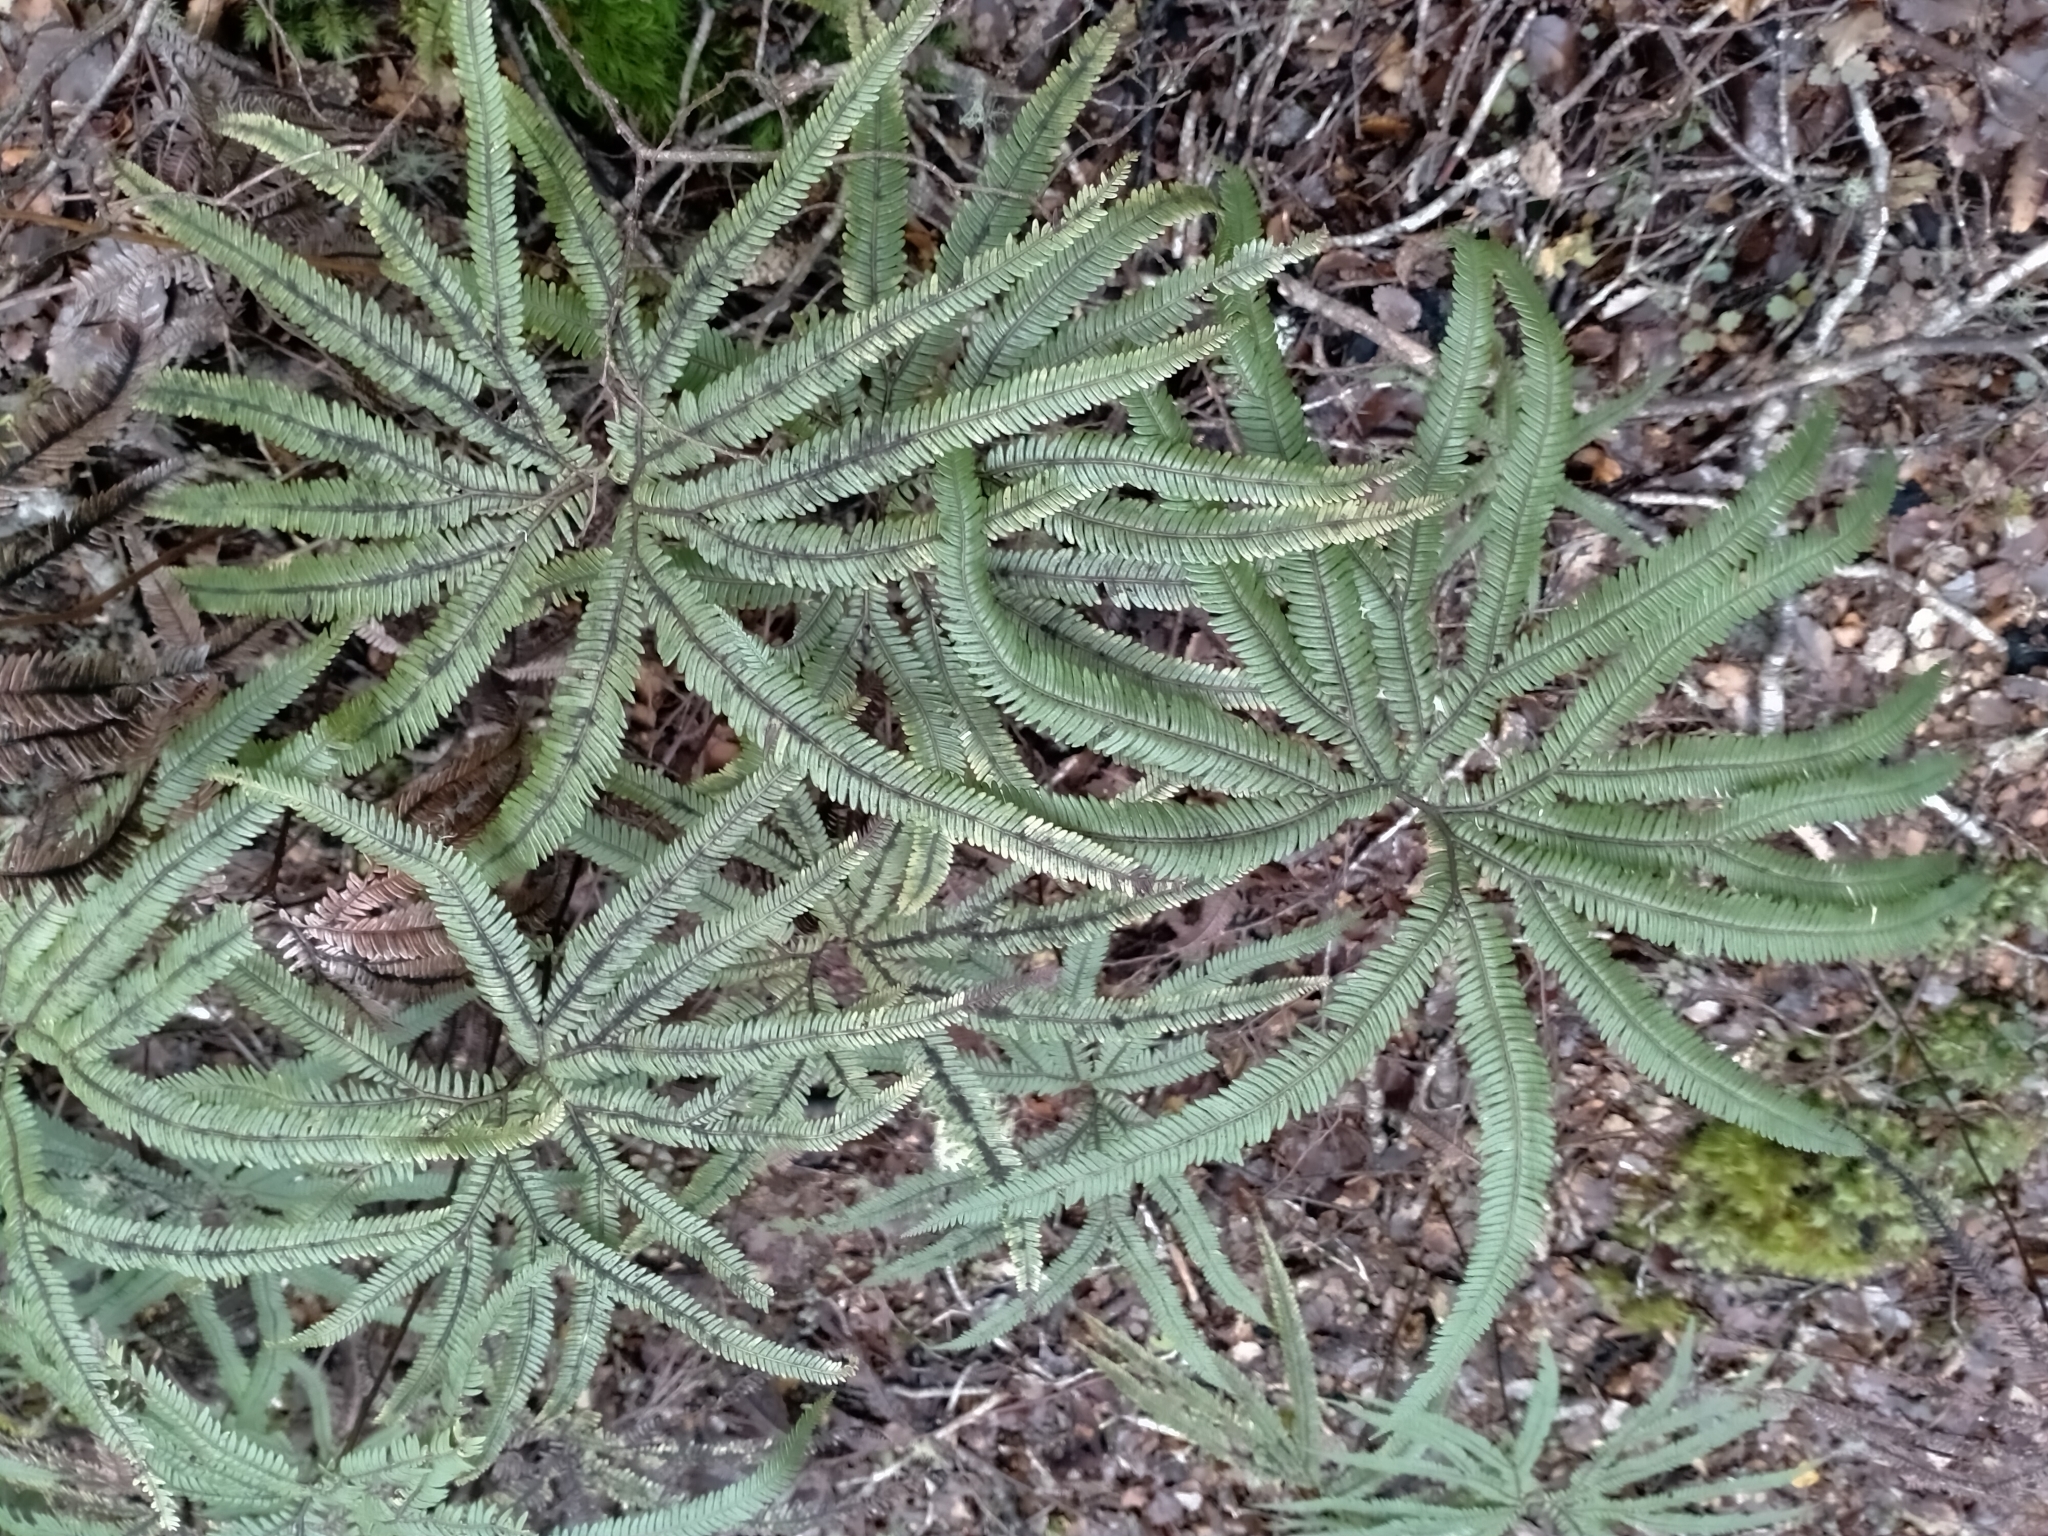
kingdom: Plantae
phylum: Tracheophyta
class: Polypodiopsida
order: Gleicheniales
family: Gleicheniaceae
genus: Sticherus
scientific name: Sticherus cunninghamii
